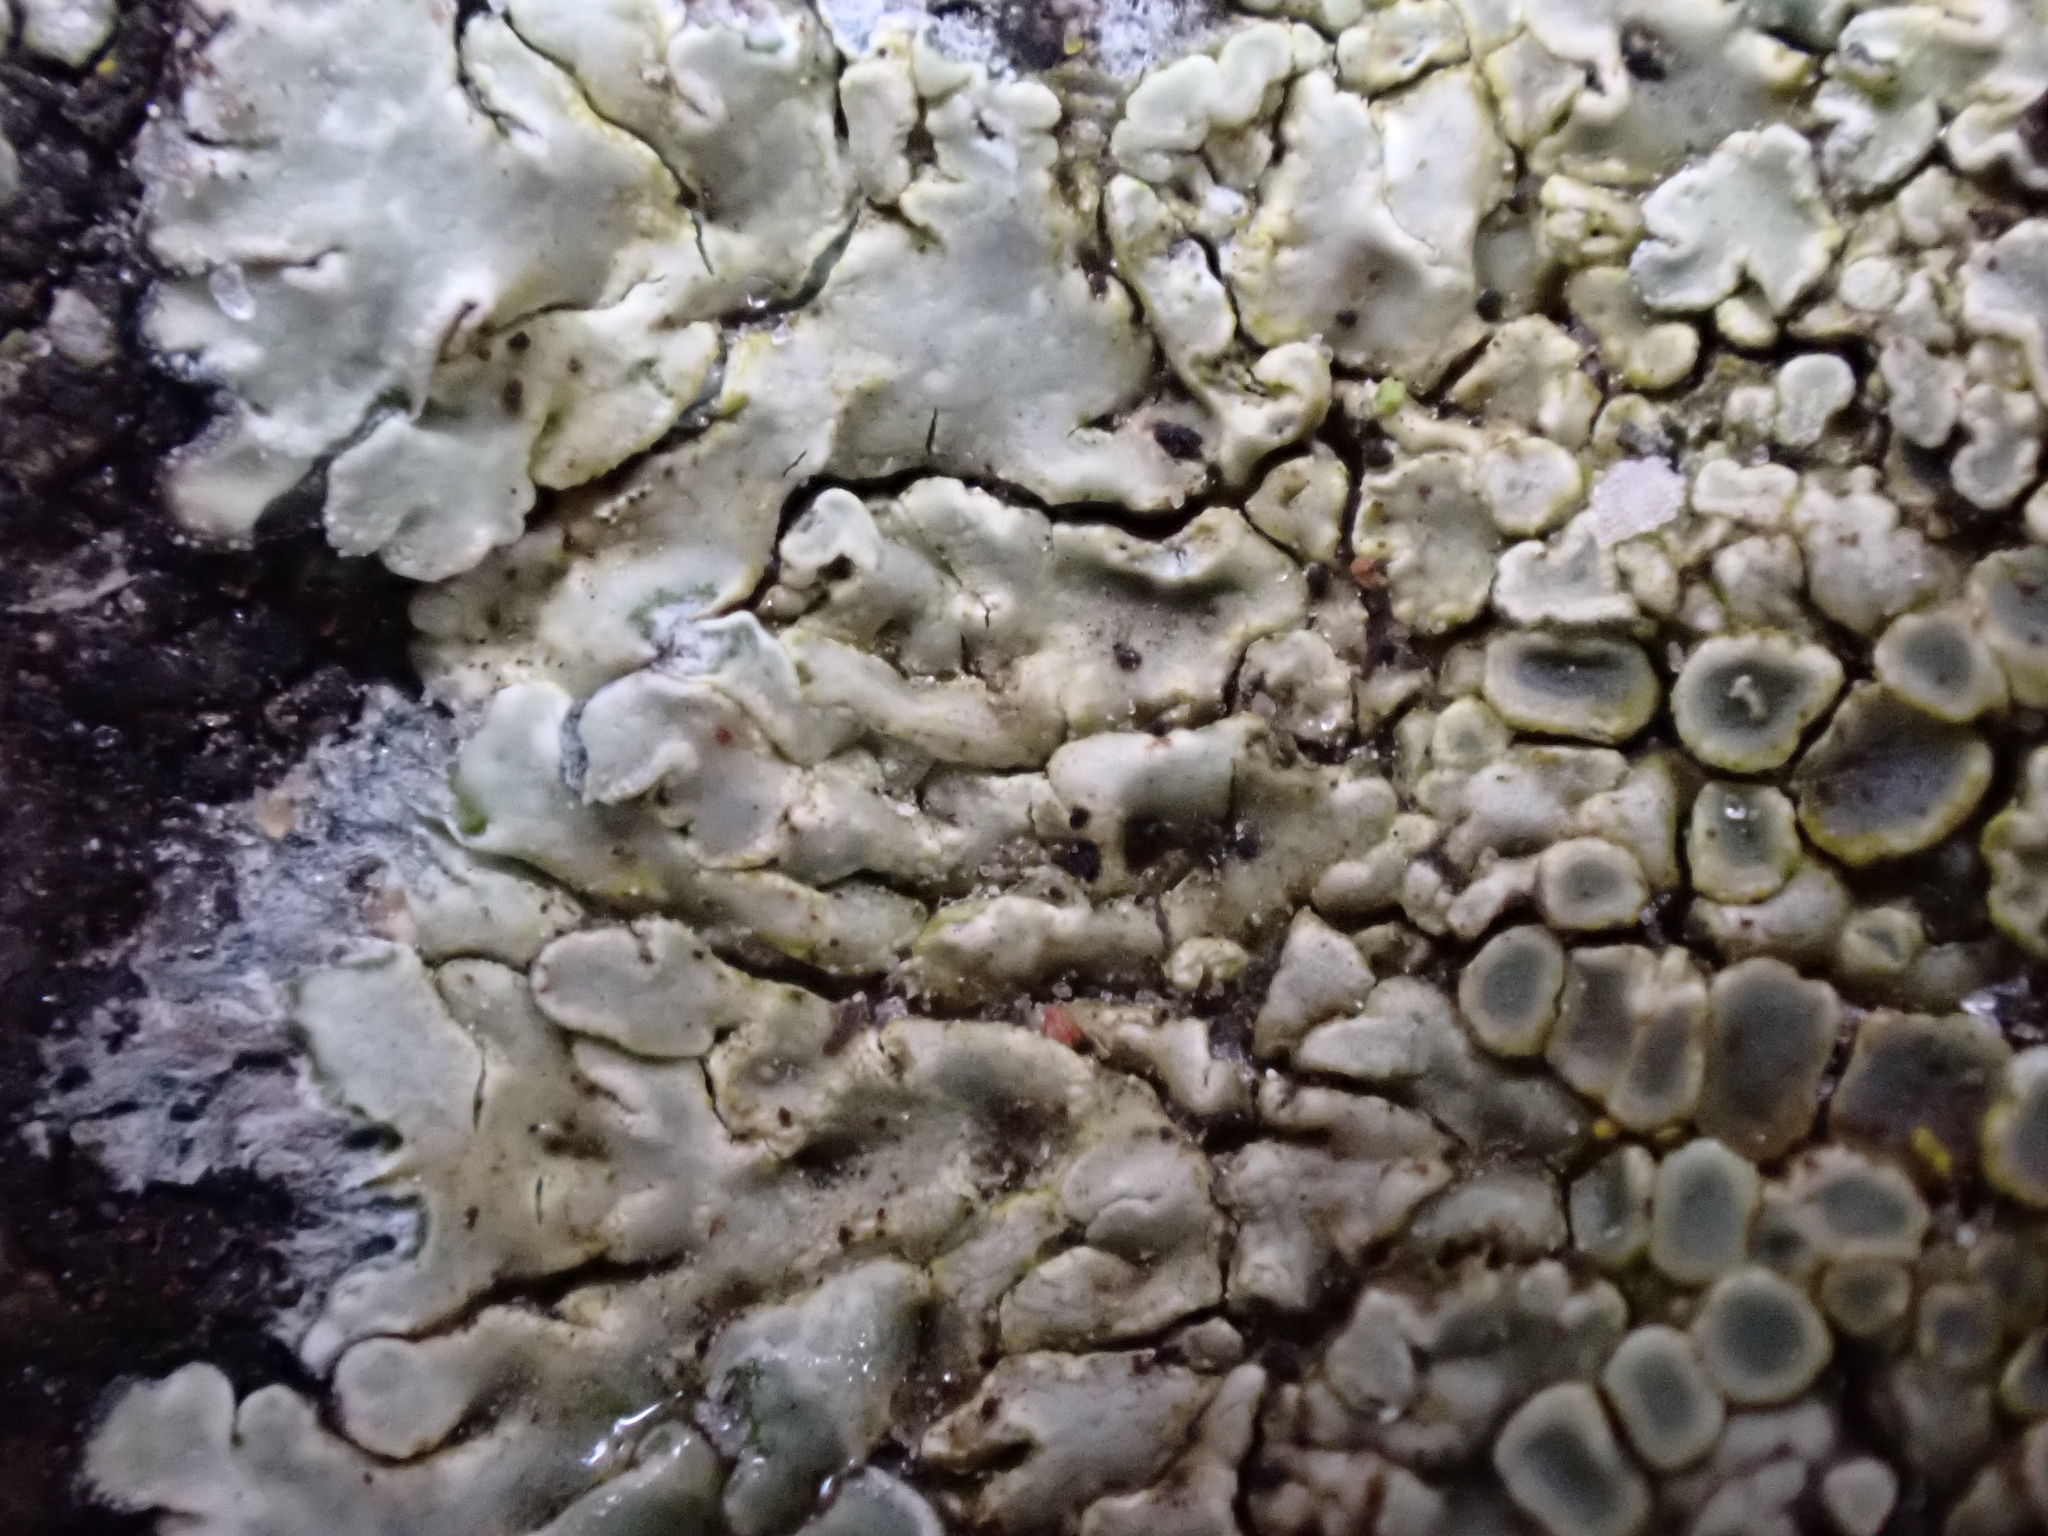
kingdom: Fungi
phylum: Ascomycota
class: Lecanoromycetes
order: Lecanorales
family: Lecanoraceae
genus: Protoparmeliopsis
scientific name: Protoparmeliopsis muralis
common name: Stonewall rim lichen
